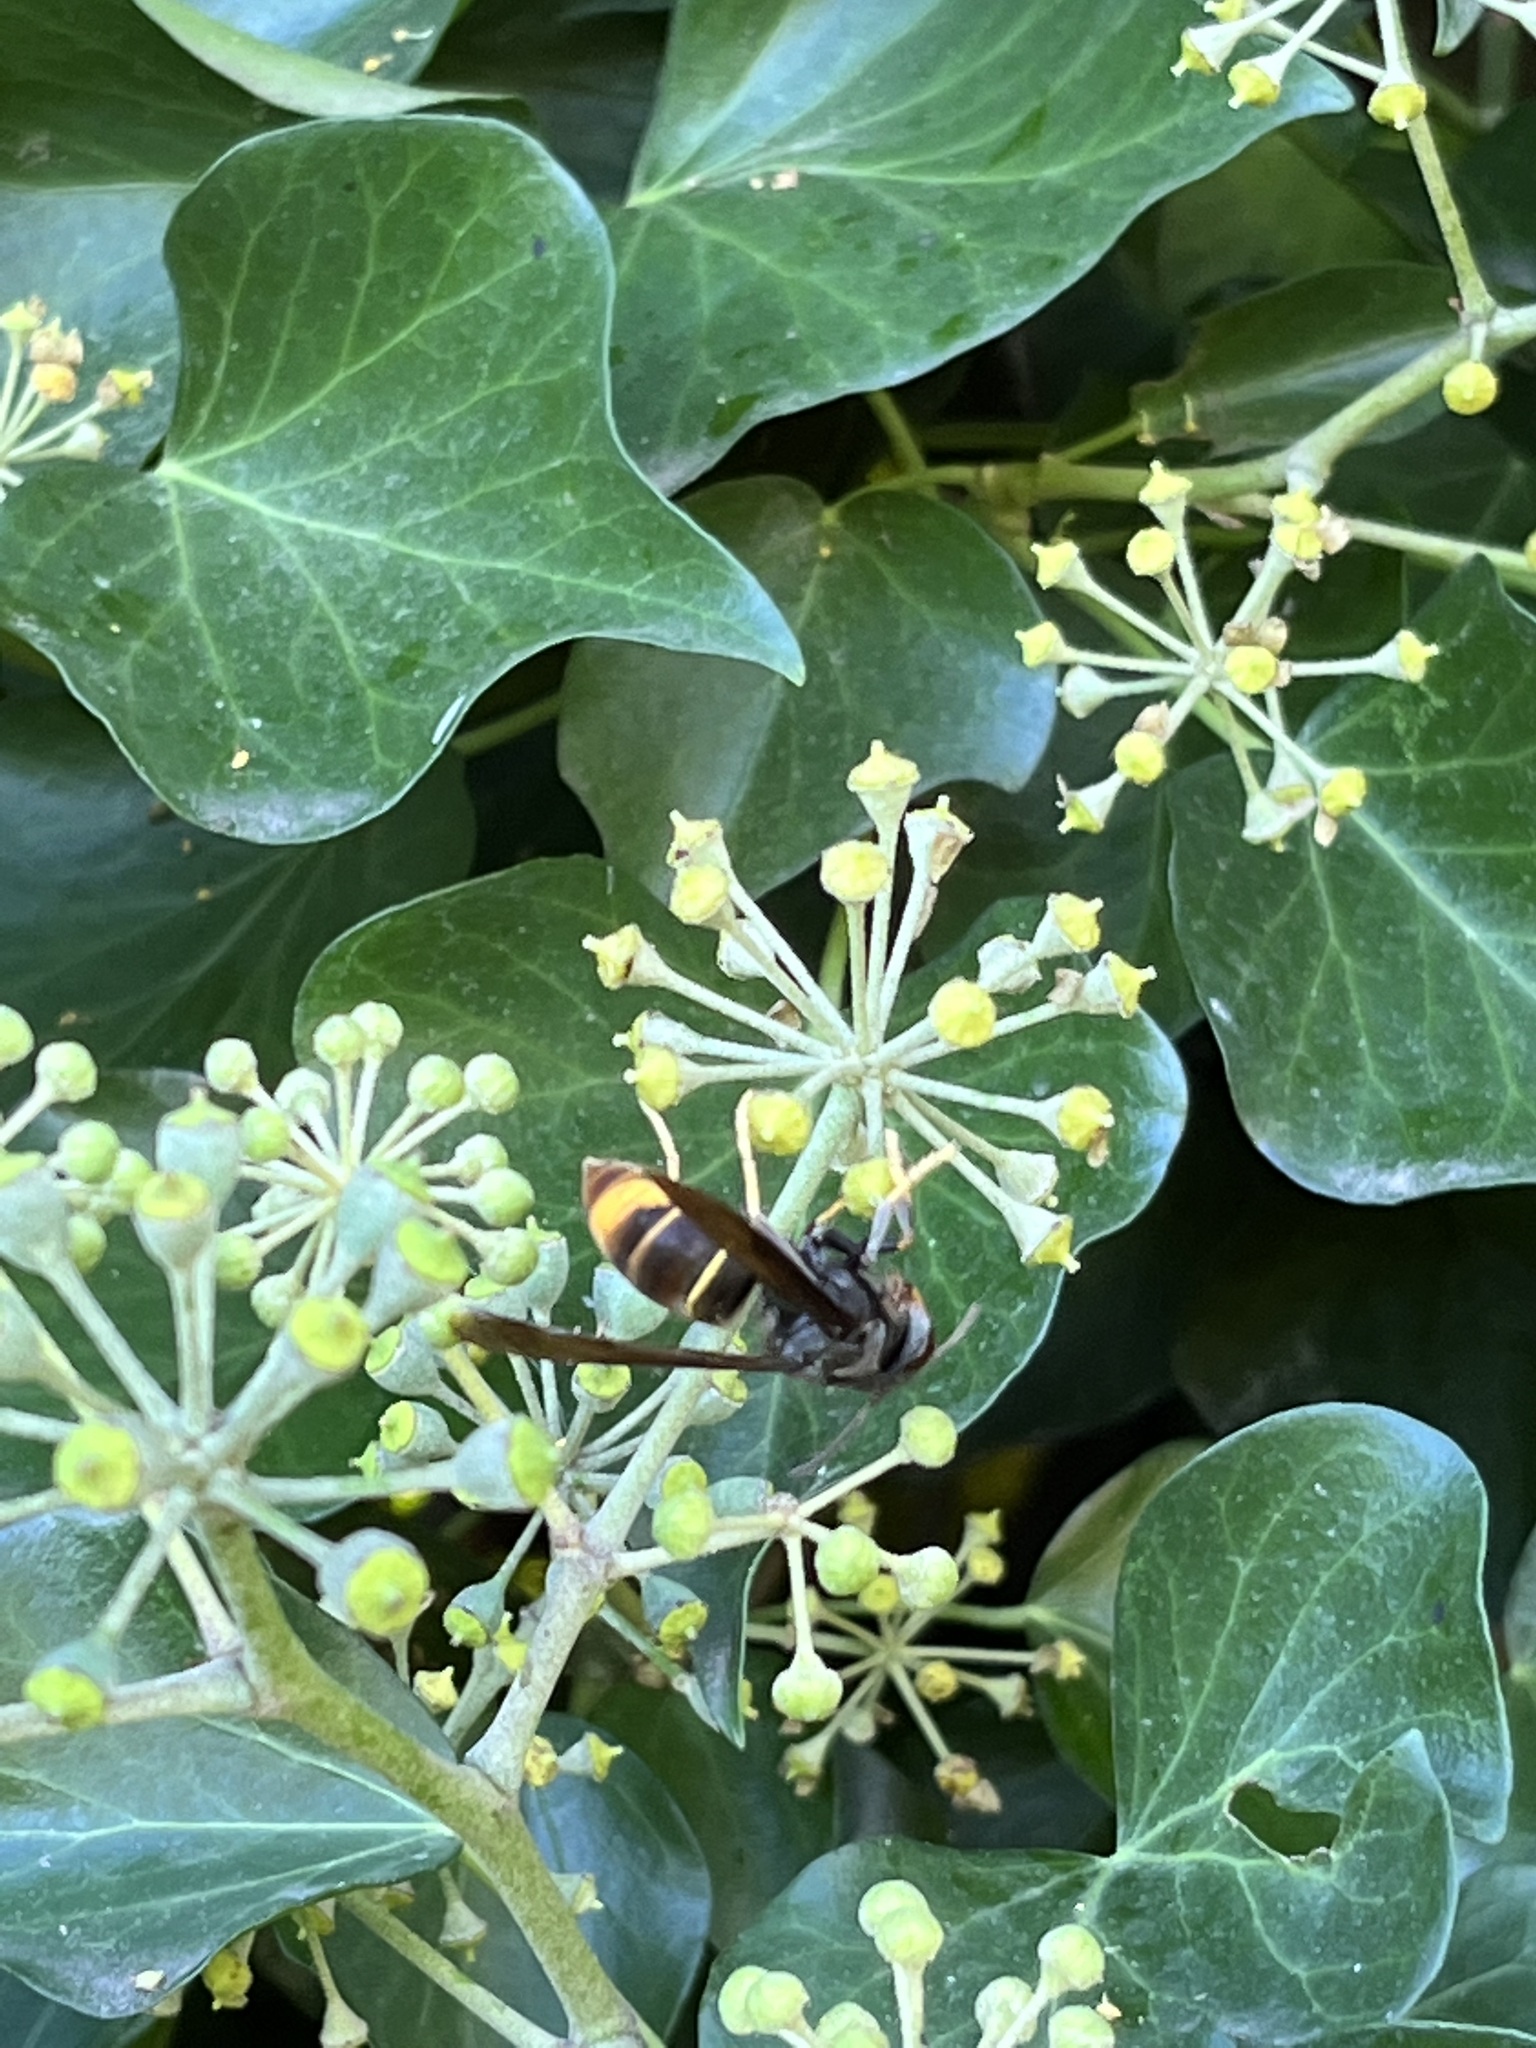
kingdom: Animalia
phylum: Arthropoda
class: Insecta
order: Hymenoptera
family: Vespidae
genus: Vespa
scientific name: Vespa velutina
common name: Asian hornet
